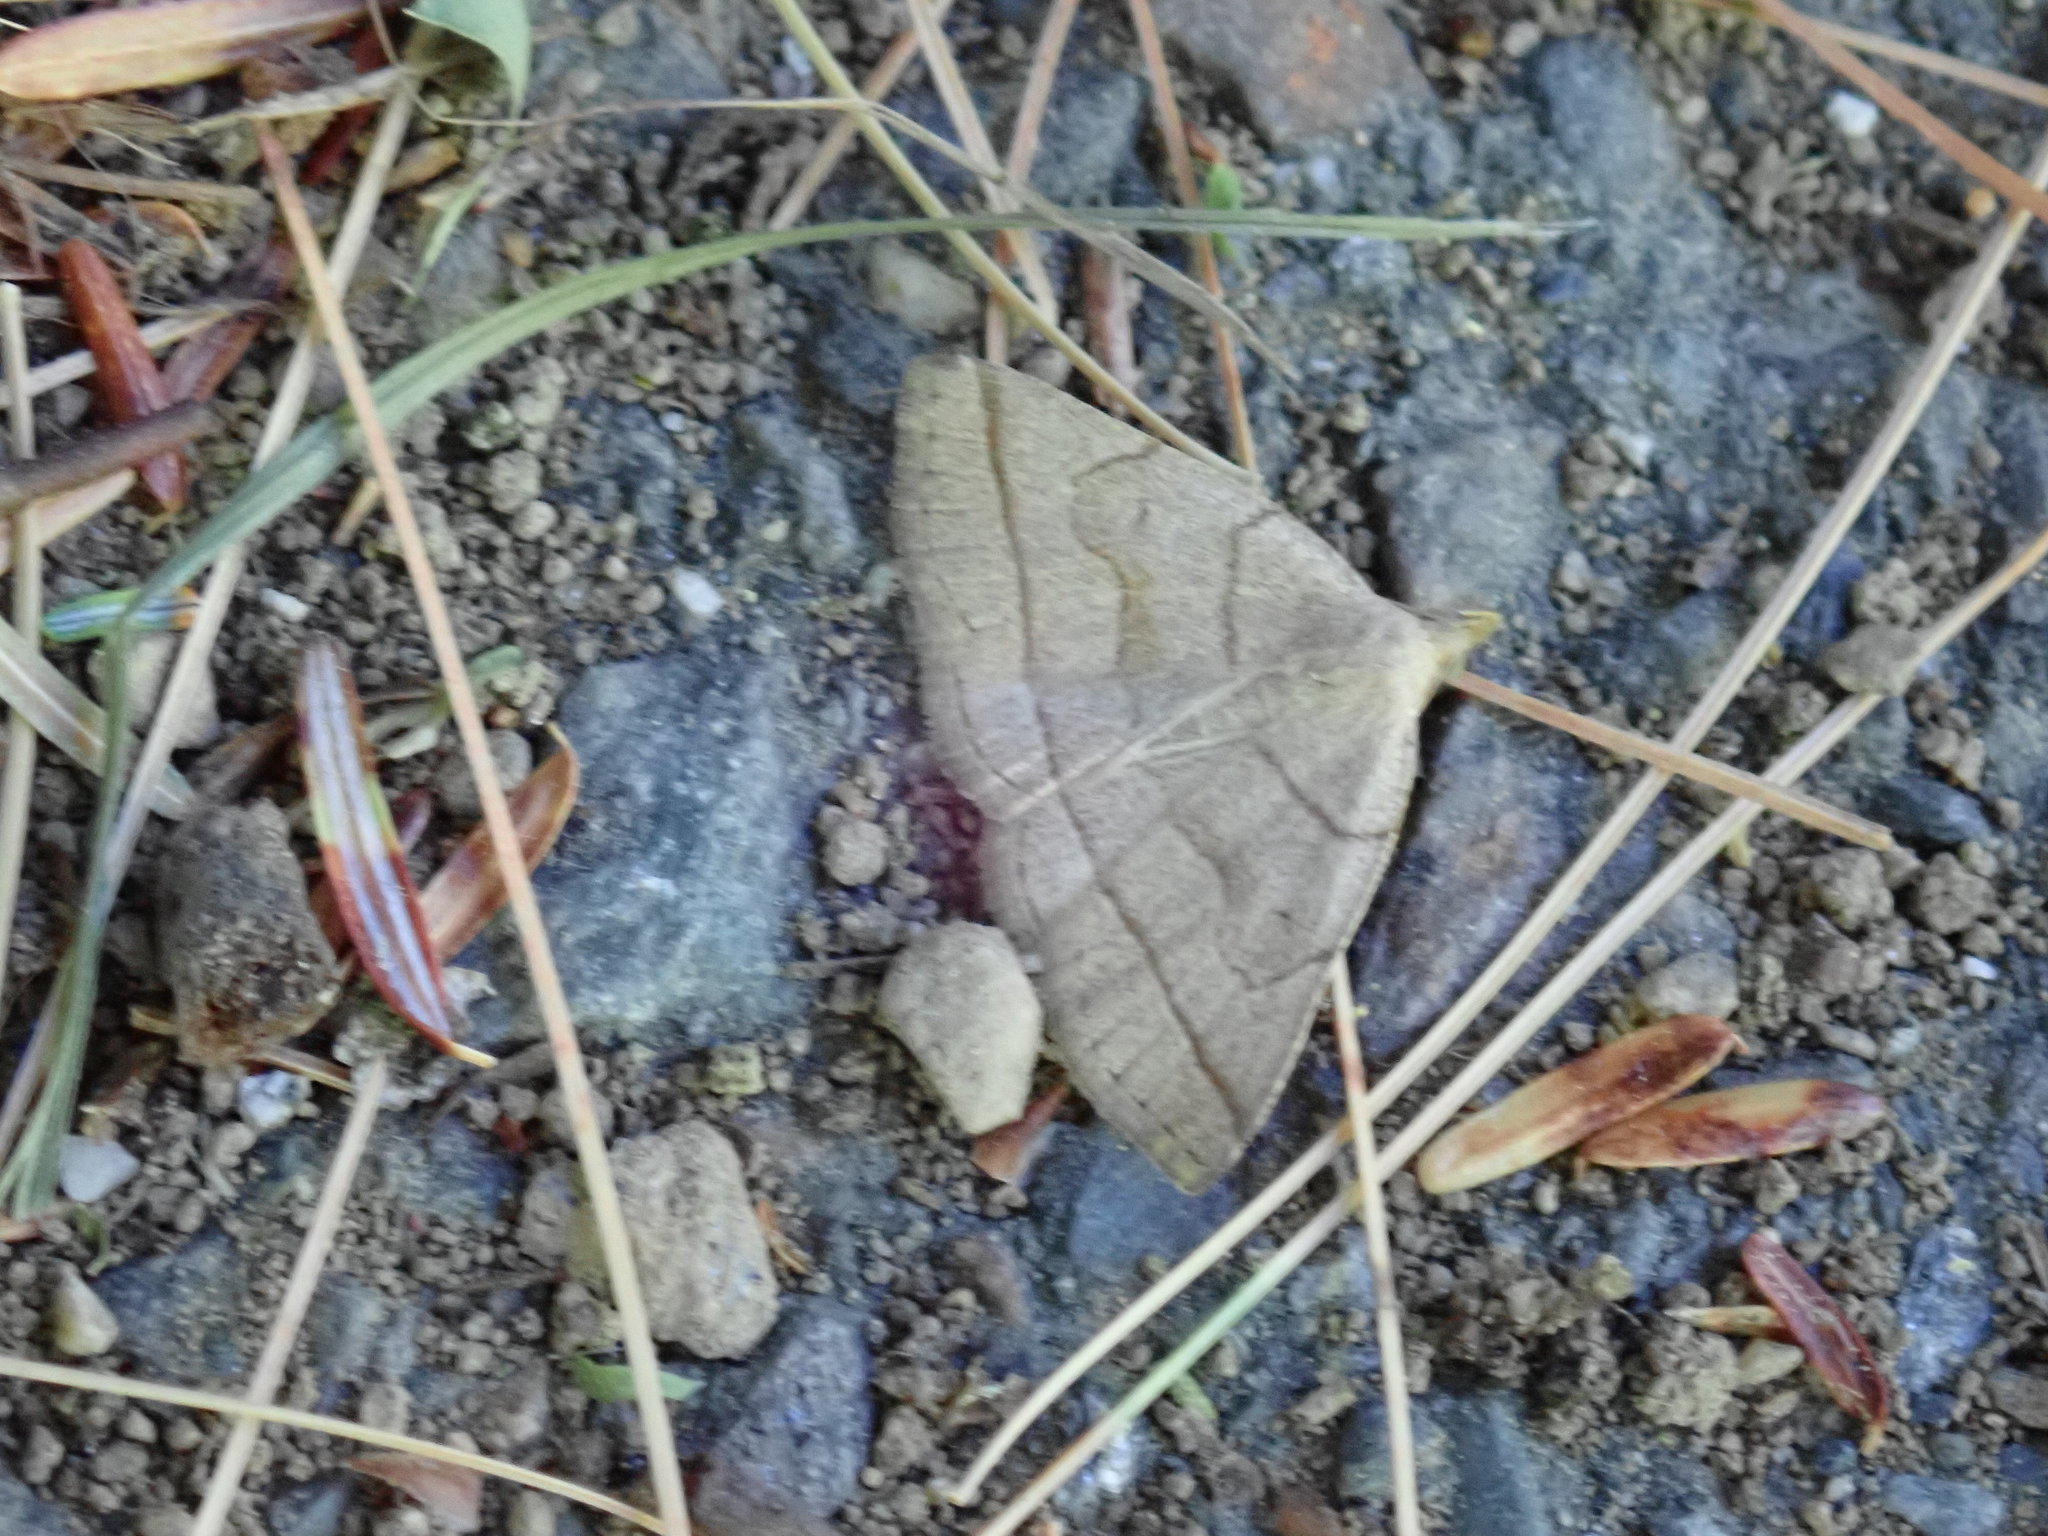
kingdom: Animalia
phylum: Arthropoda
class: Insecta
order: Lepidoptera
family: Erebidae
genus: Zanclognatha
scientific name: Zanclognatha cruralis
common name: Early fan-foot
